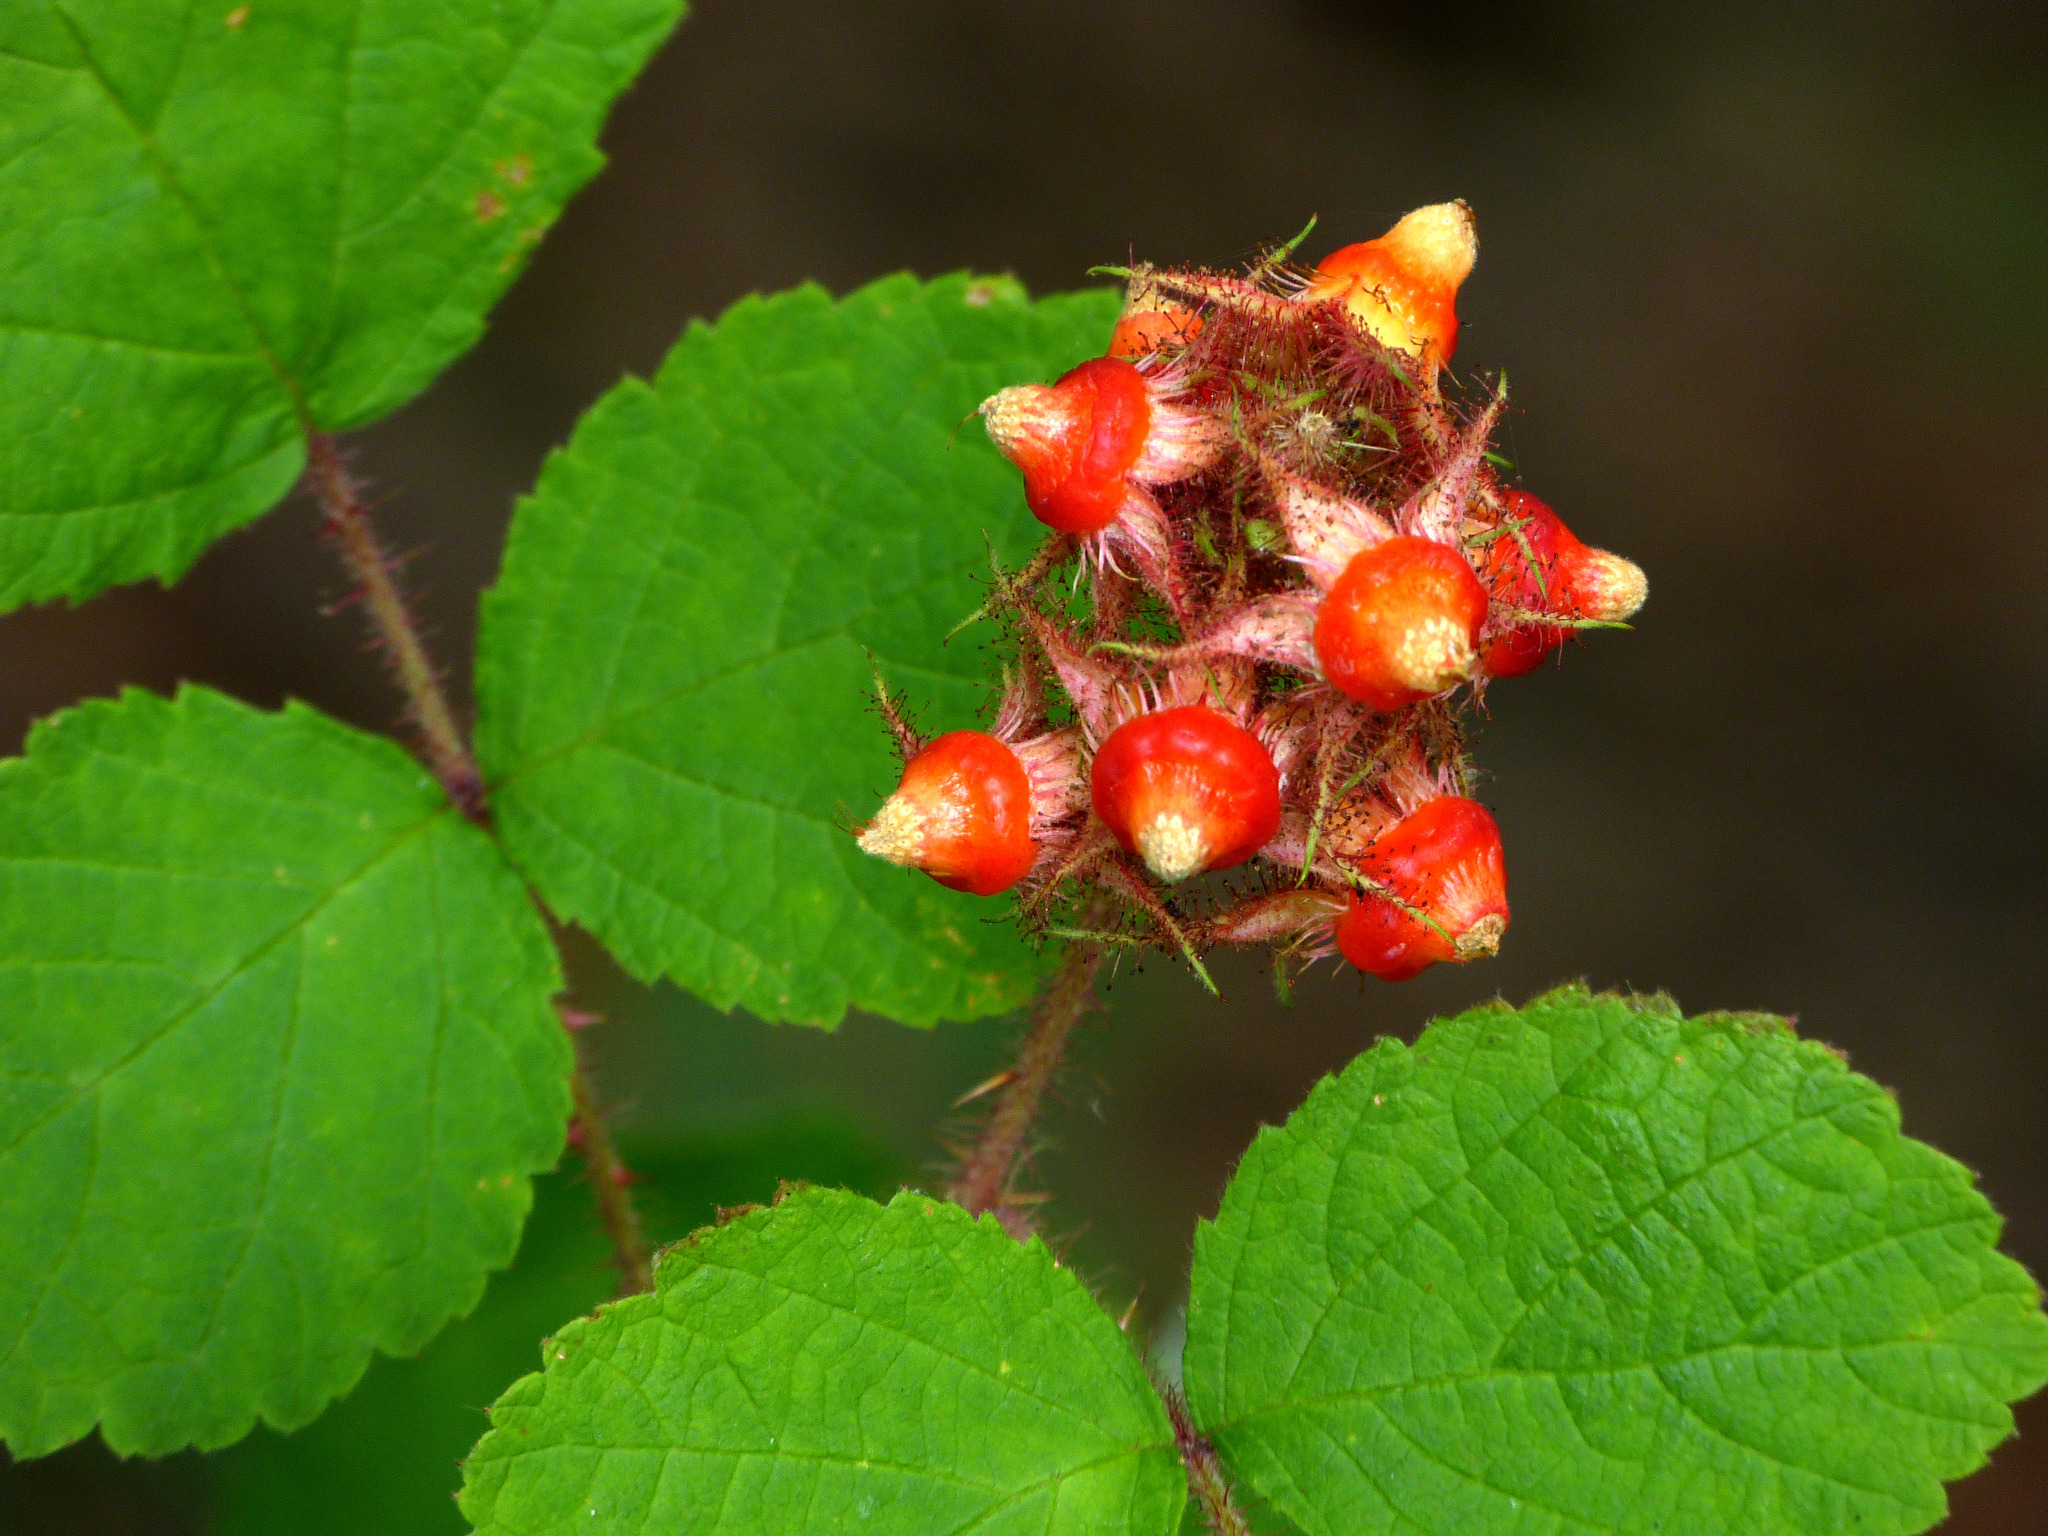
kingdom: Plantae
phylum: Tracheophyta
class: Magnoliopsida
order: Rosales
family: Rosaceae
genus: Rubus
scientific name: Rubus phoenicolasius
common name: Japanese wineberry
